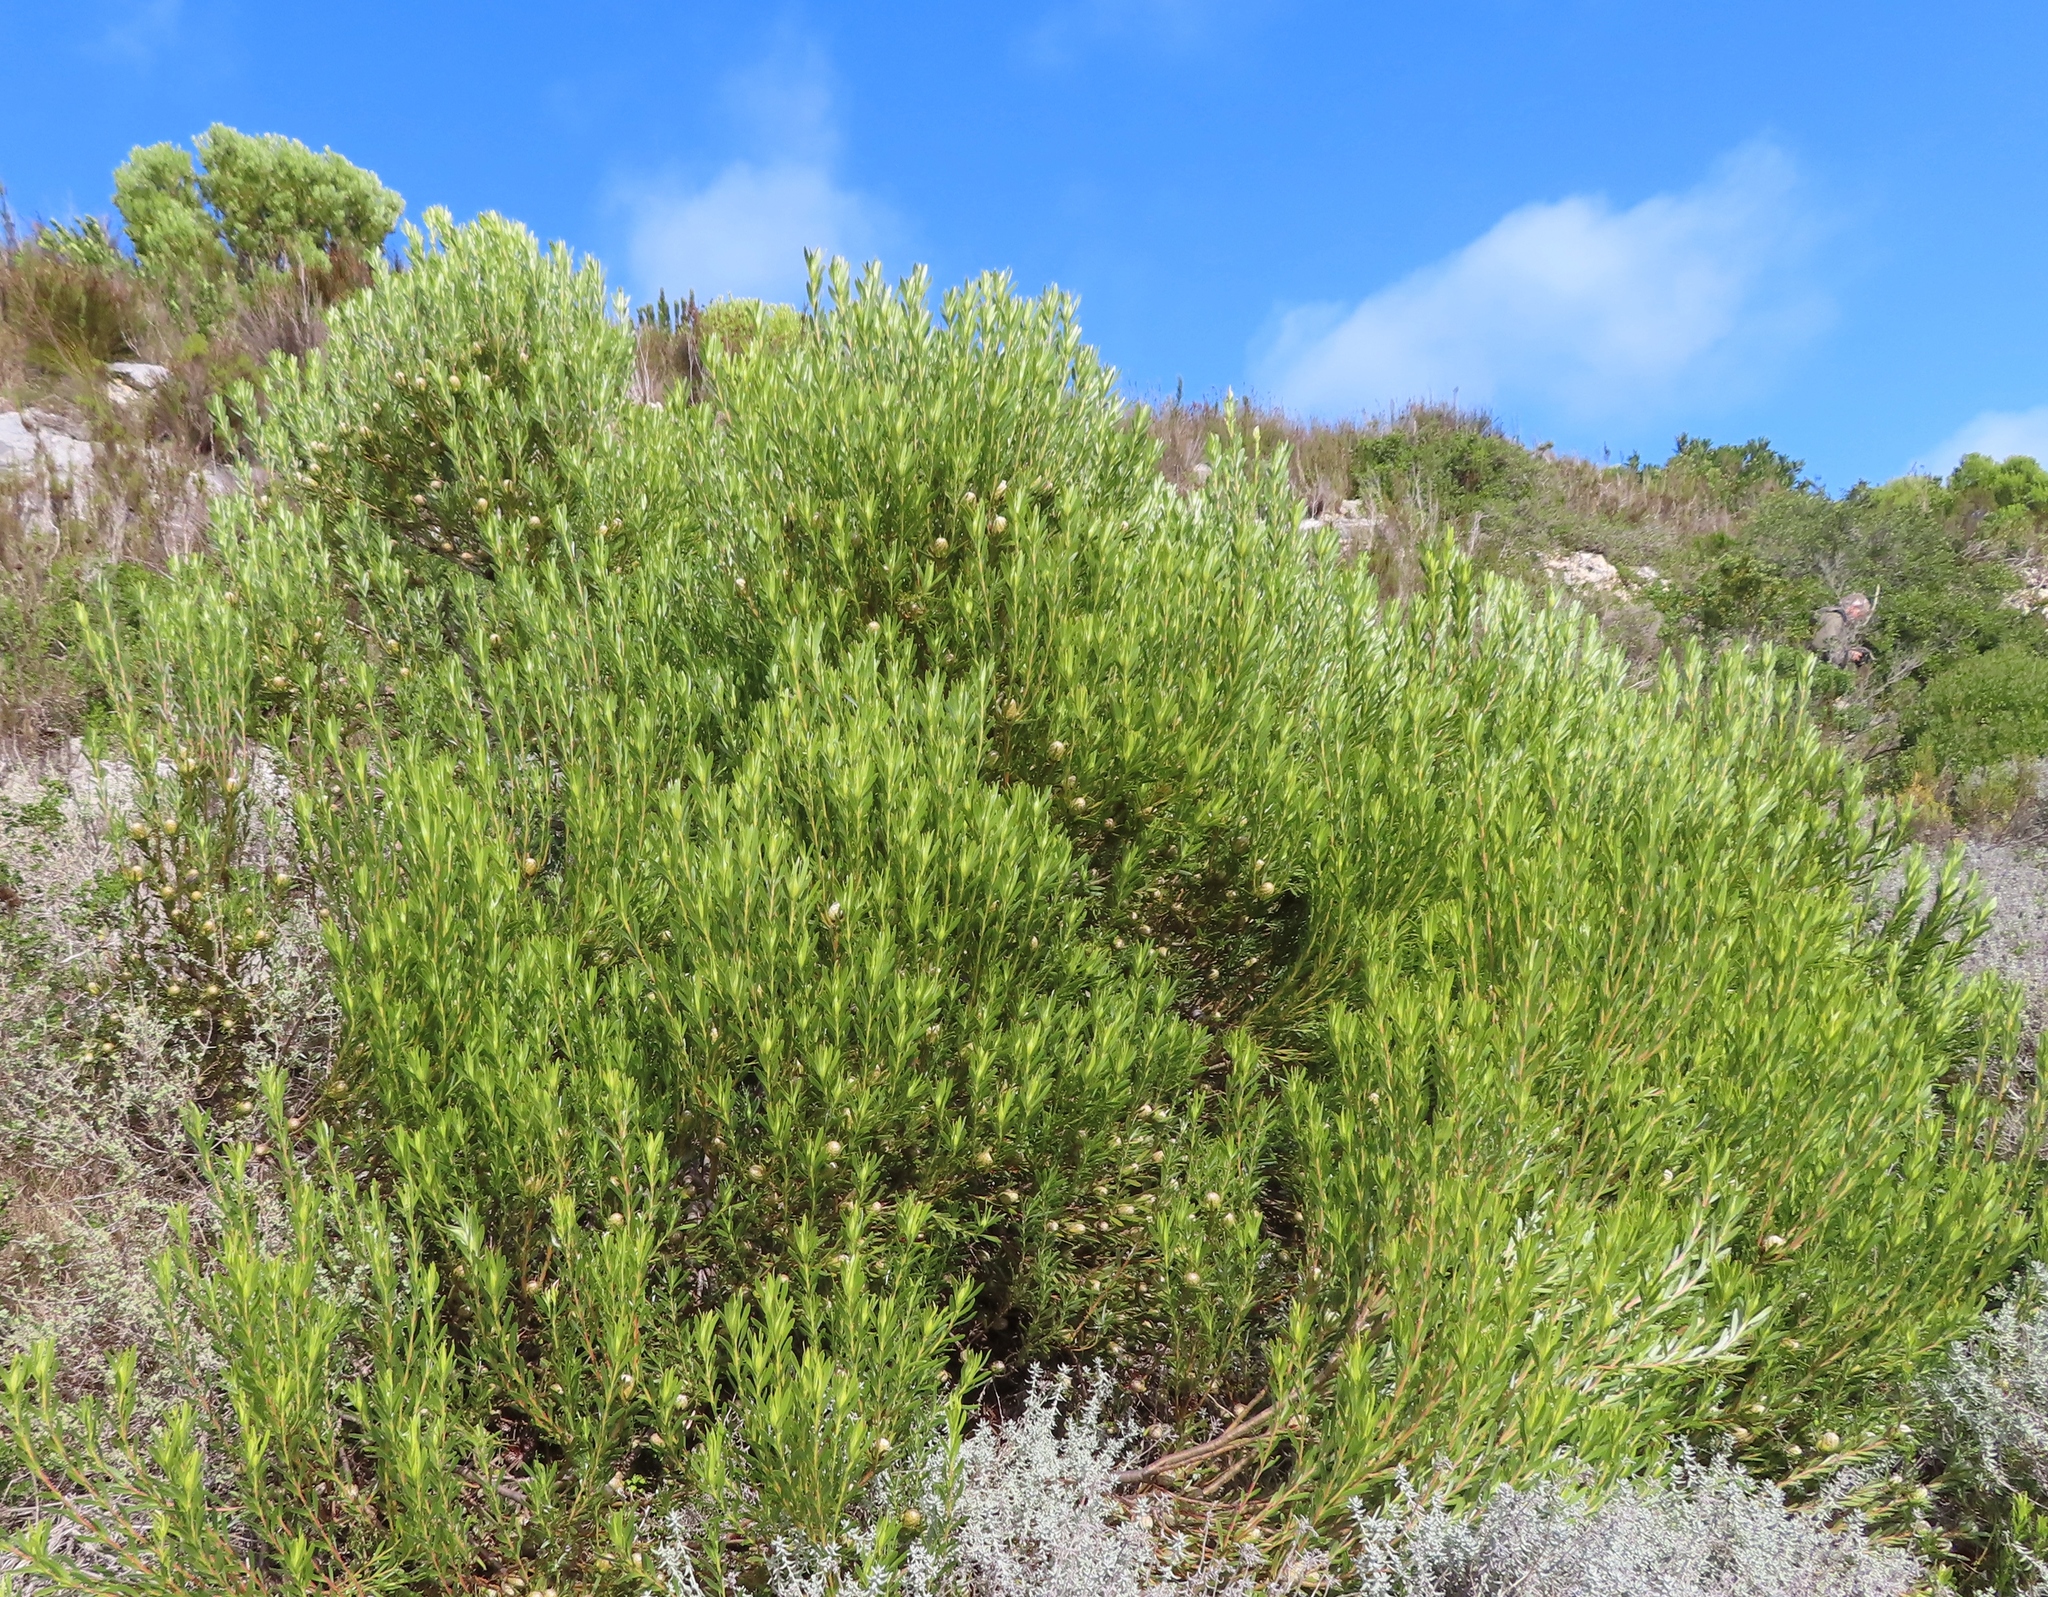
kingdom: Plantae
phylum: Tracheophyta
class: Magnoliopsida
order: Proteales
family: Proteaceae
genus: Leucadendron
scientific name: Leucadendron coniferum
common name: Dune conebush
